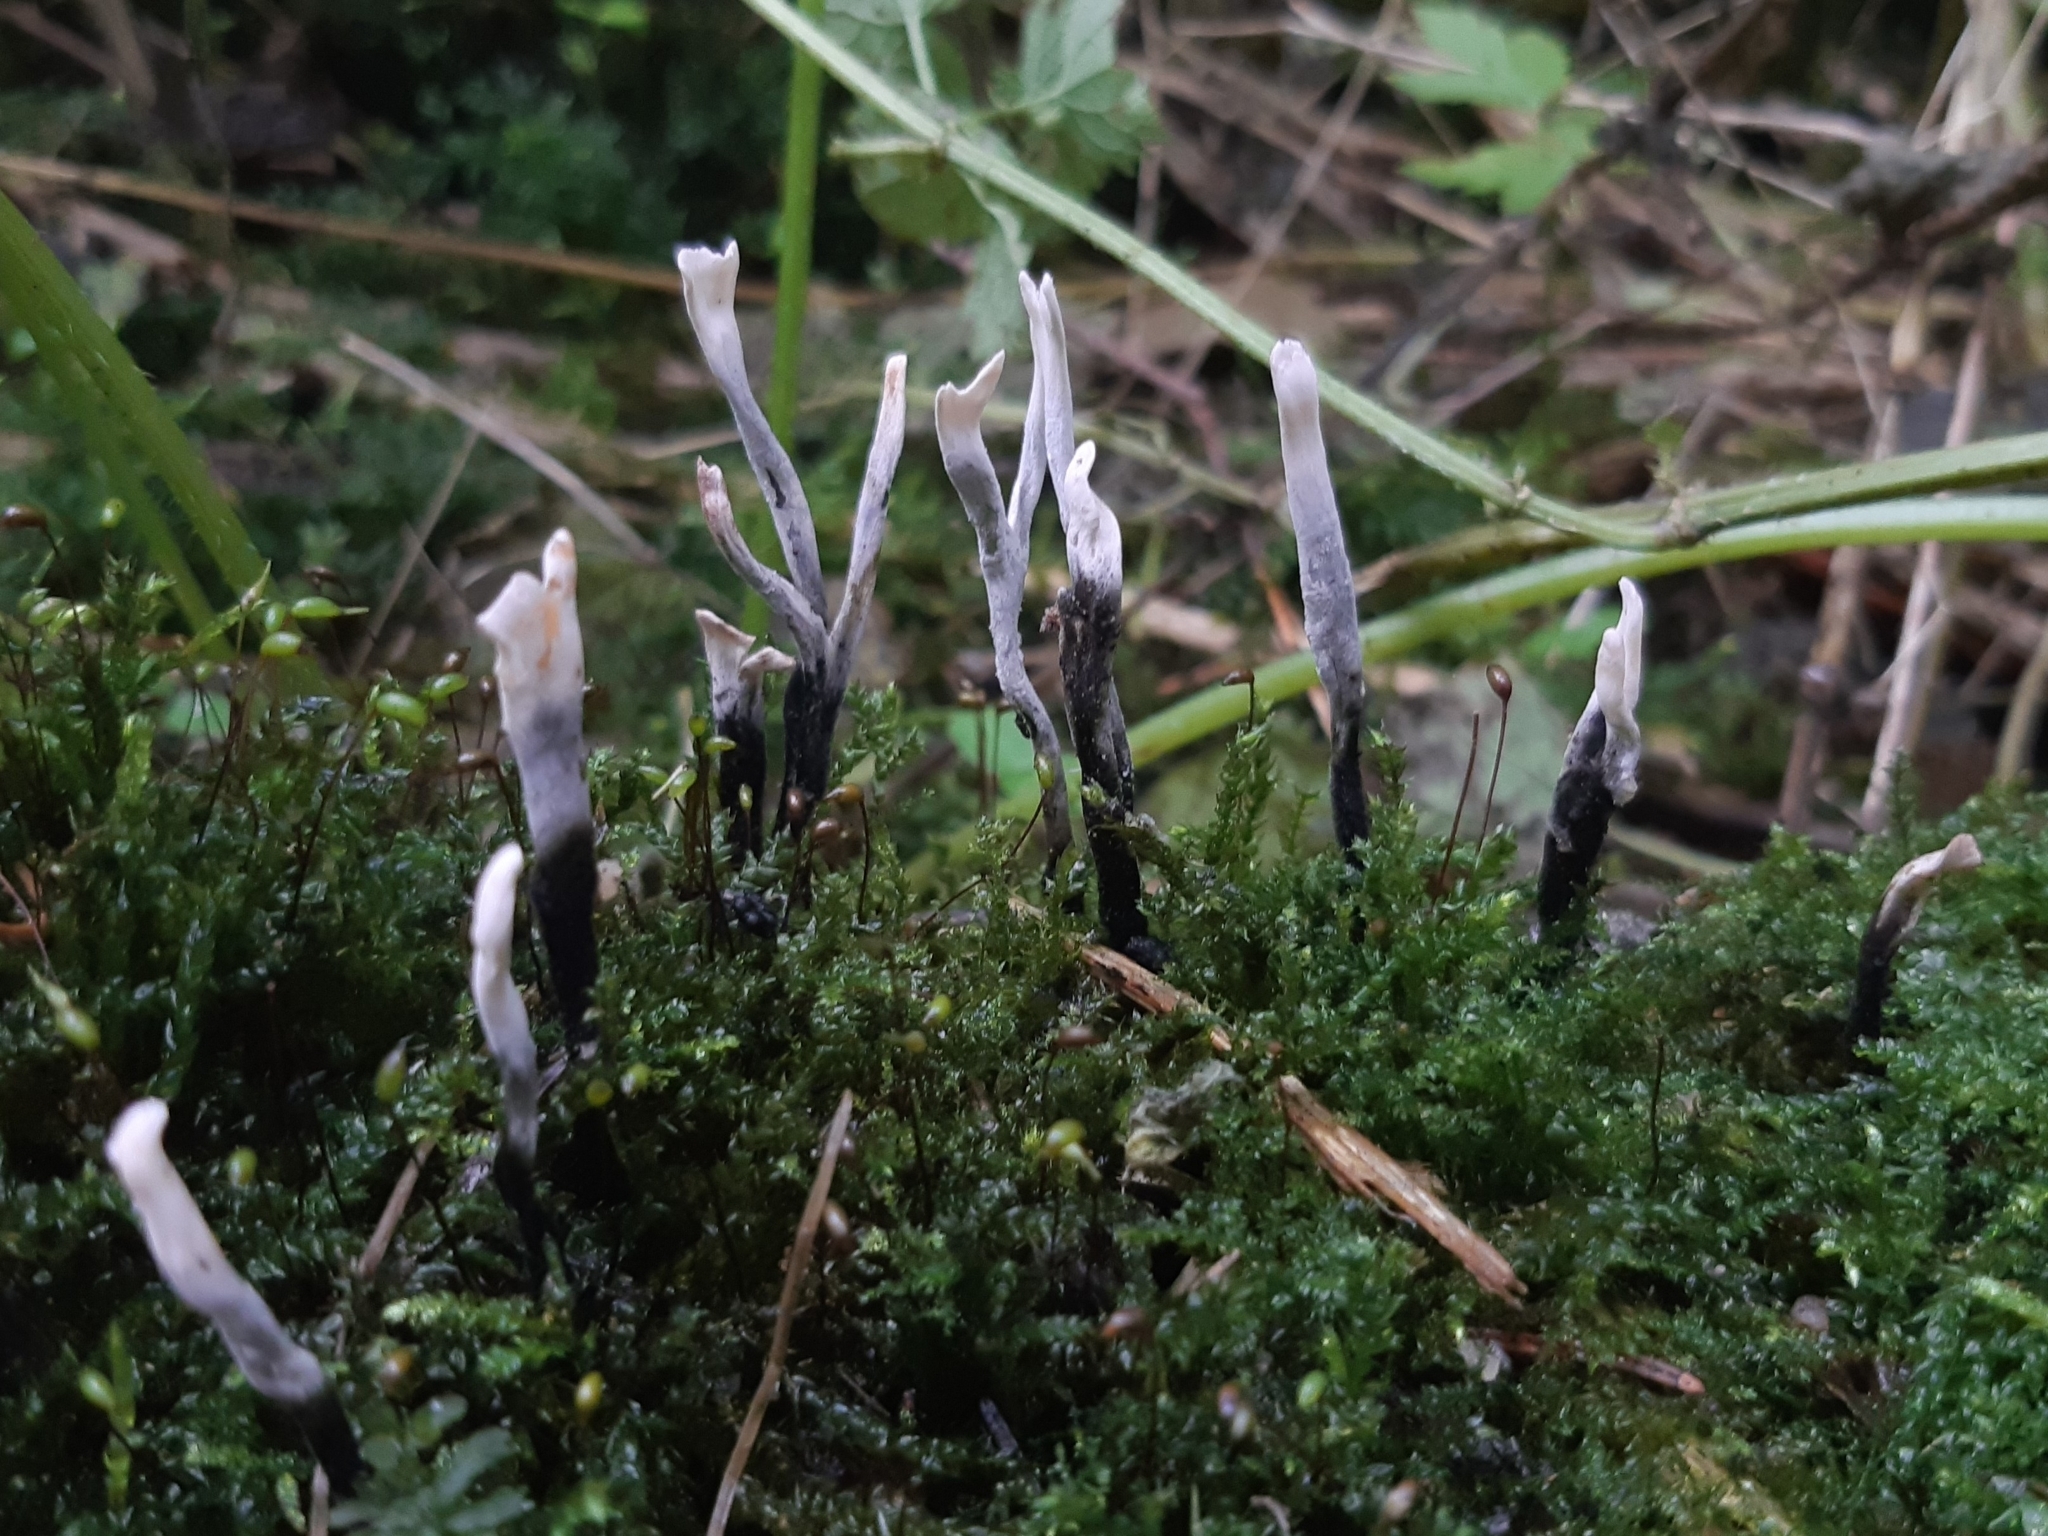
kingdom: Fungi
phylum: Ascomycota
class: Sordariomycetes
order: Xylariales
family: Xylariaceae
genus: Xylaria
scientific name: Xylaria hypoxylon
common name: Candle-snuff fungus
